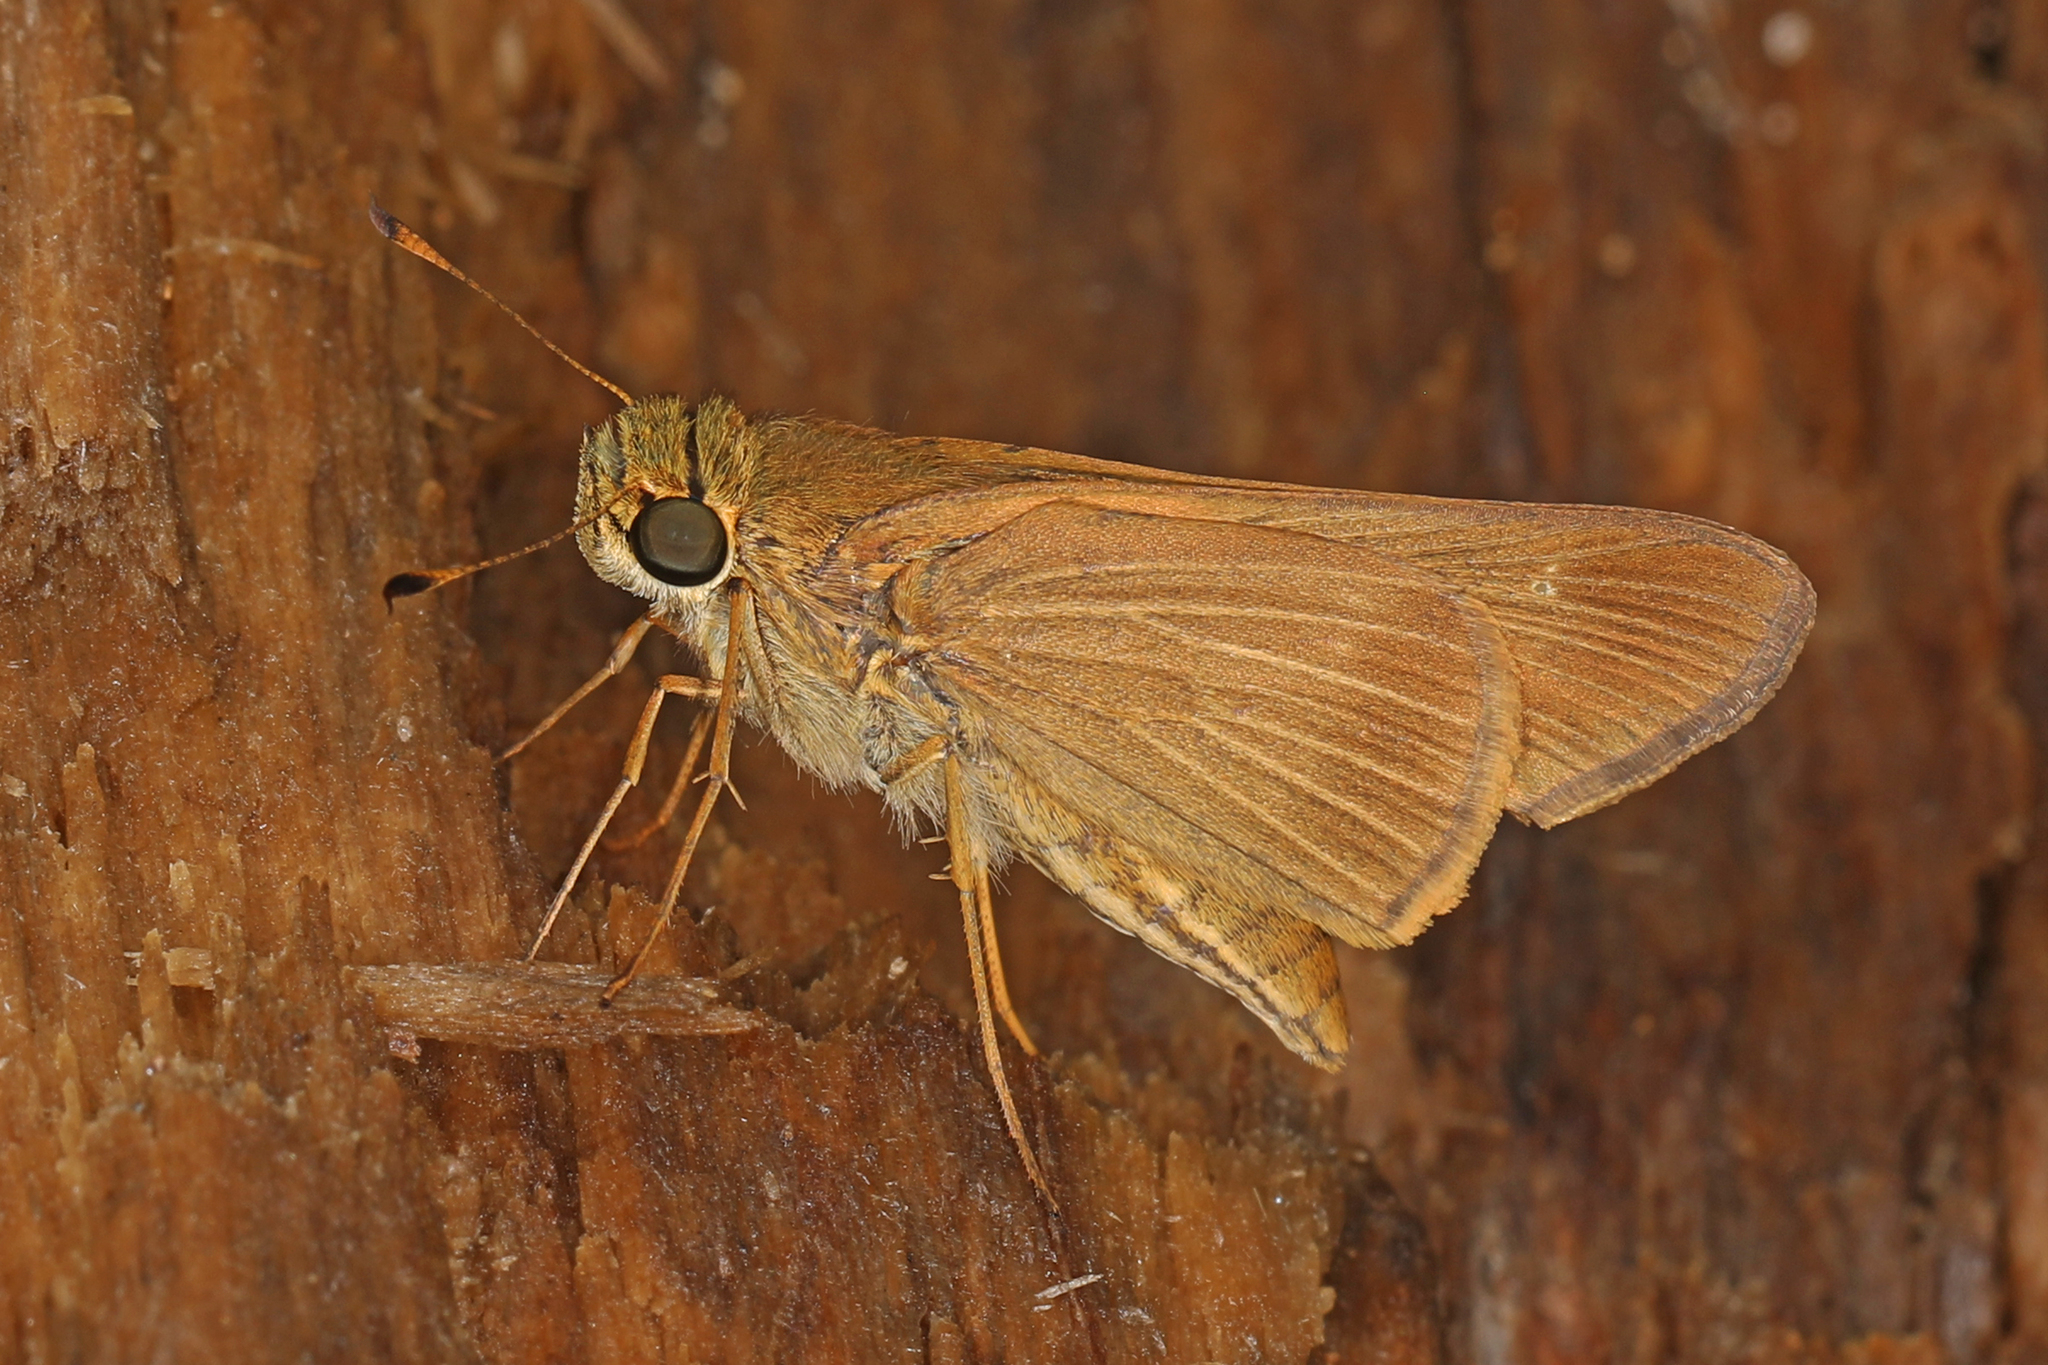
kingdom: Animalia
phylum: Arthropoda
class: Insecta
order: Lepidoptera
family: Hesperiidae
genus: Panoquina
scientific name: Panoquina ocola
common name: Ocola skipper
